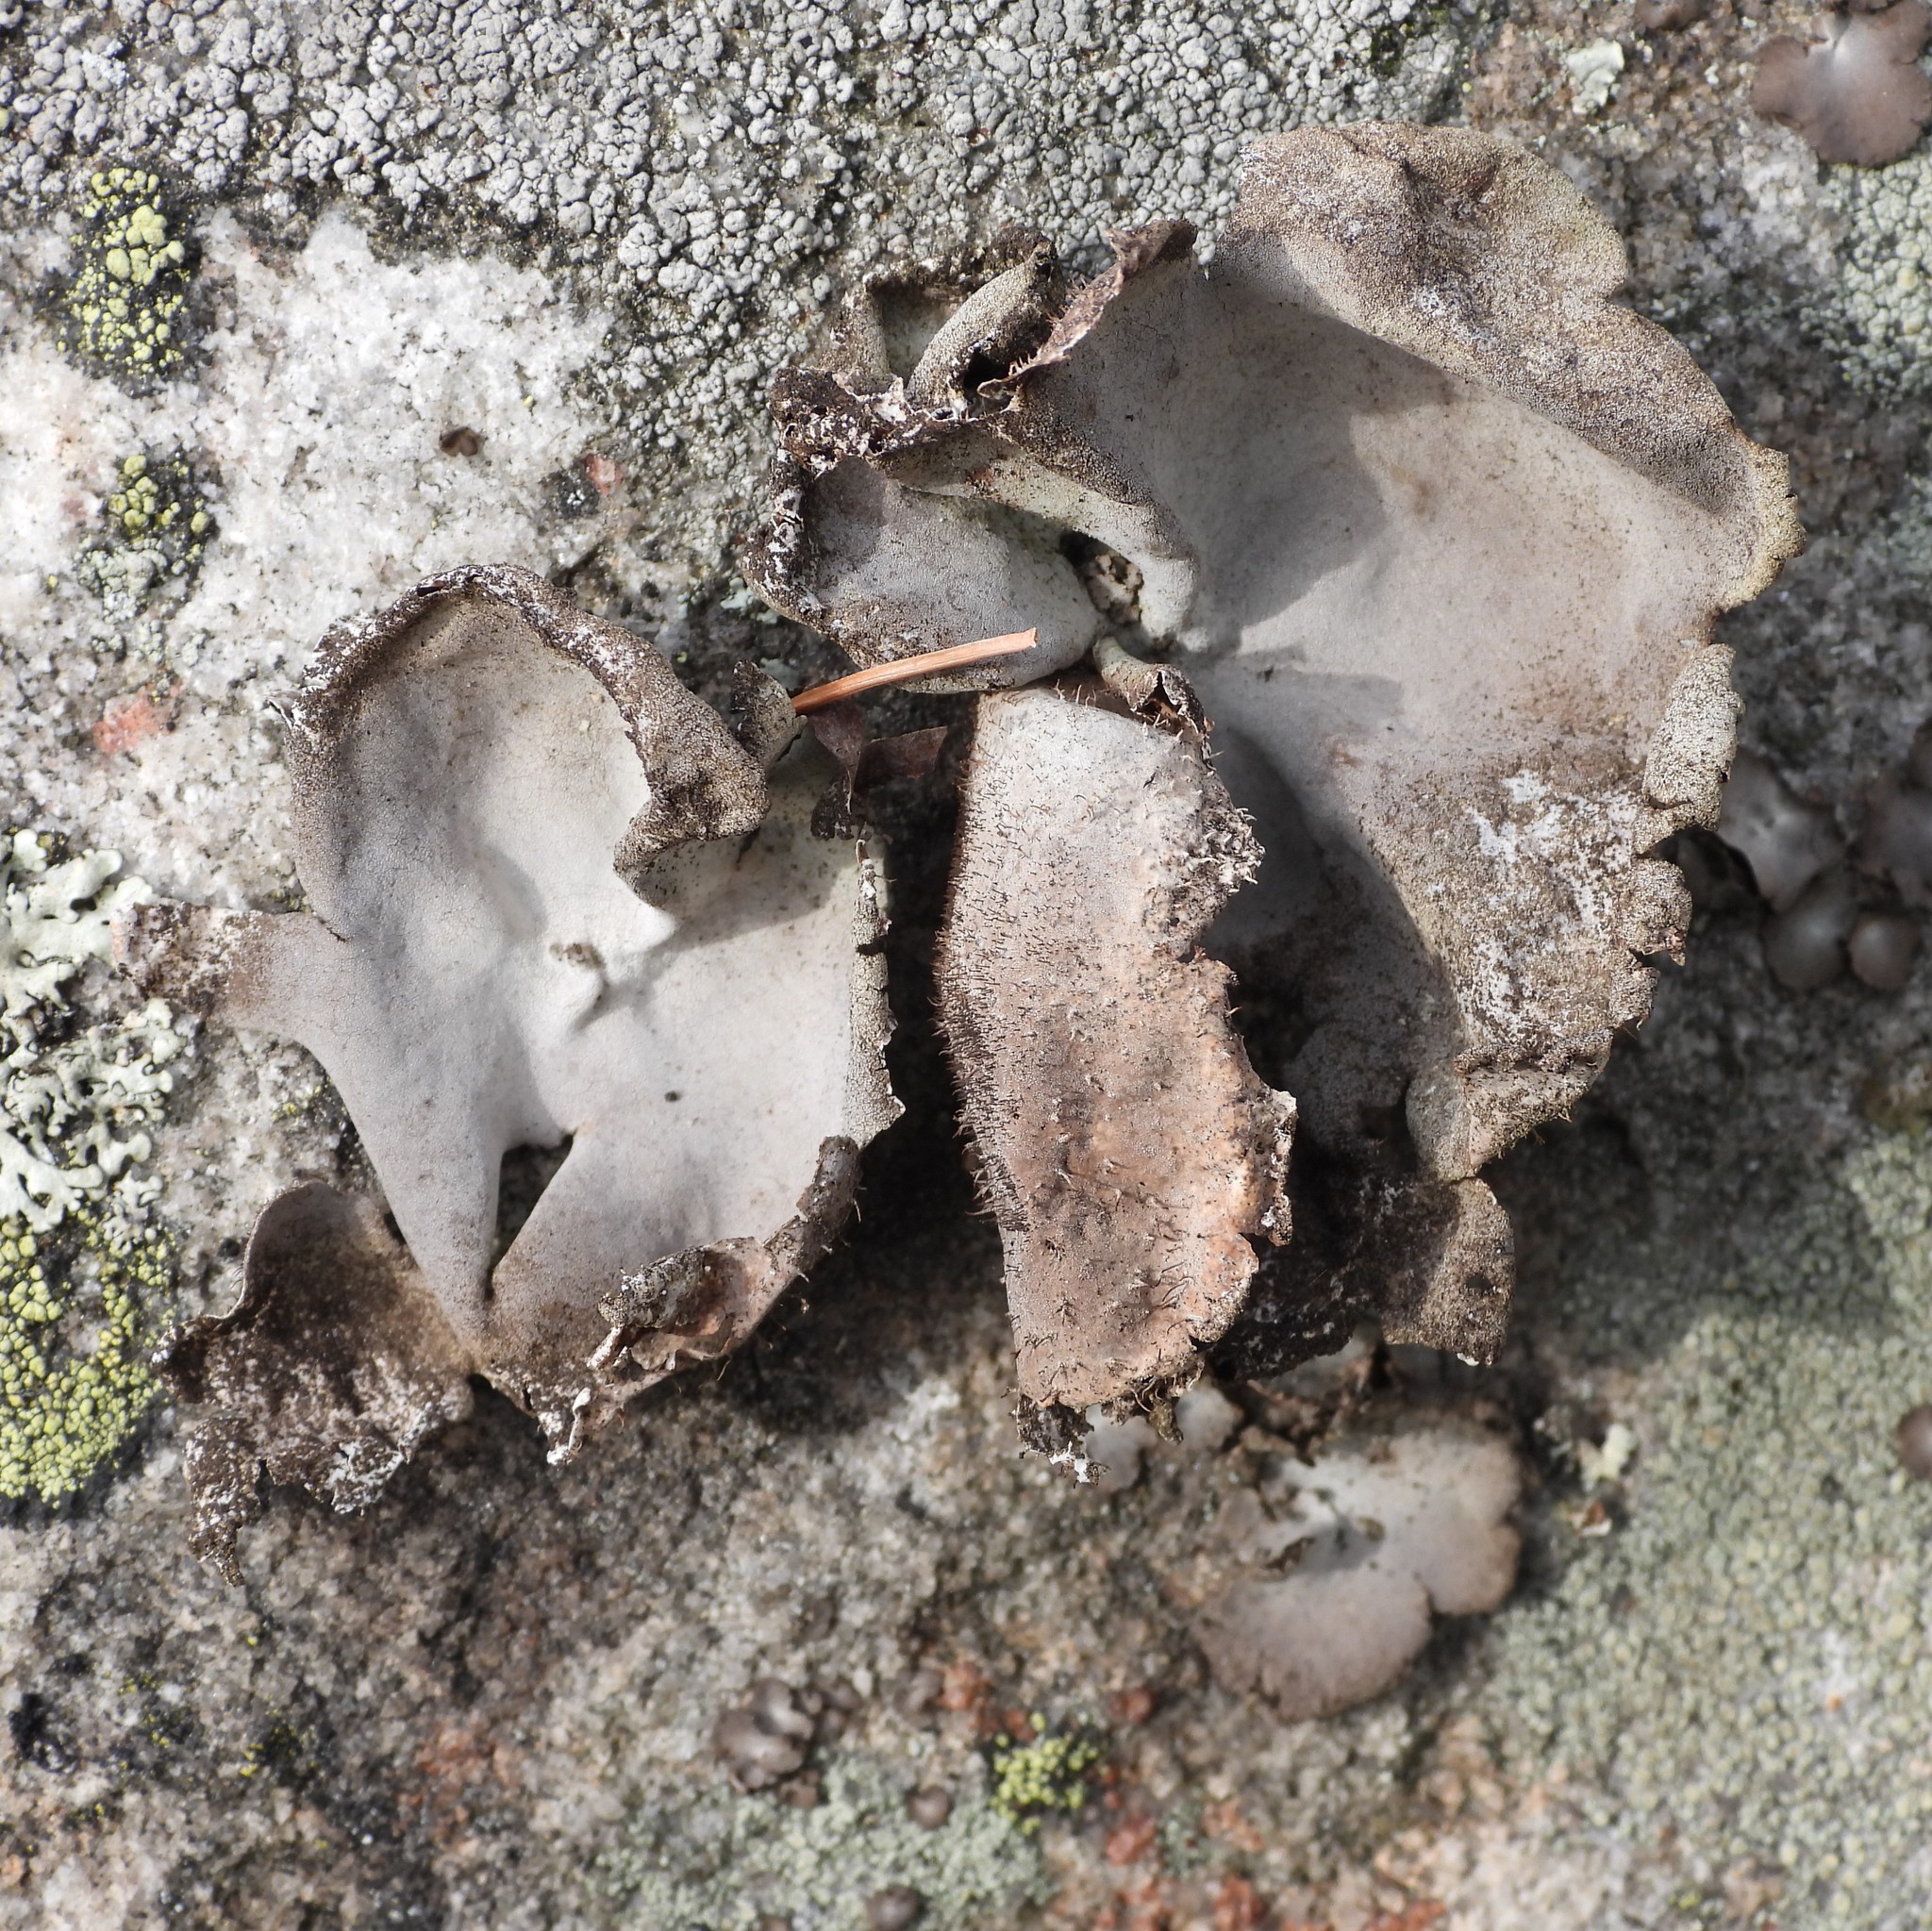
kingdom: Fungi
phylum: Ascomycota
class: Lecanoromycetes
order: Umbilicariales
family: Umbilicariaceae
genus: Umbilicaria
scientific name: Umbilicaria hirsuta
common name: Granulating rocktripe lichen
